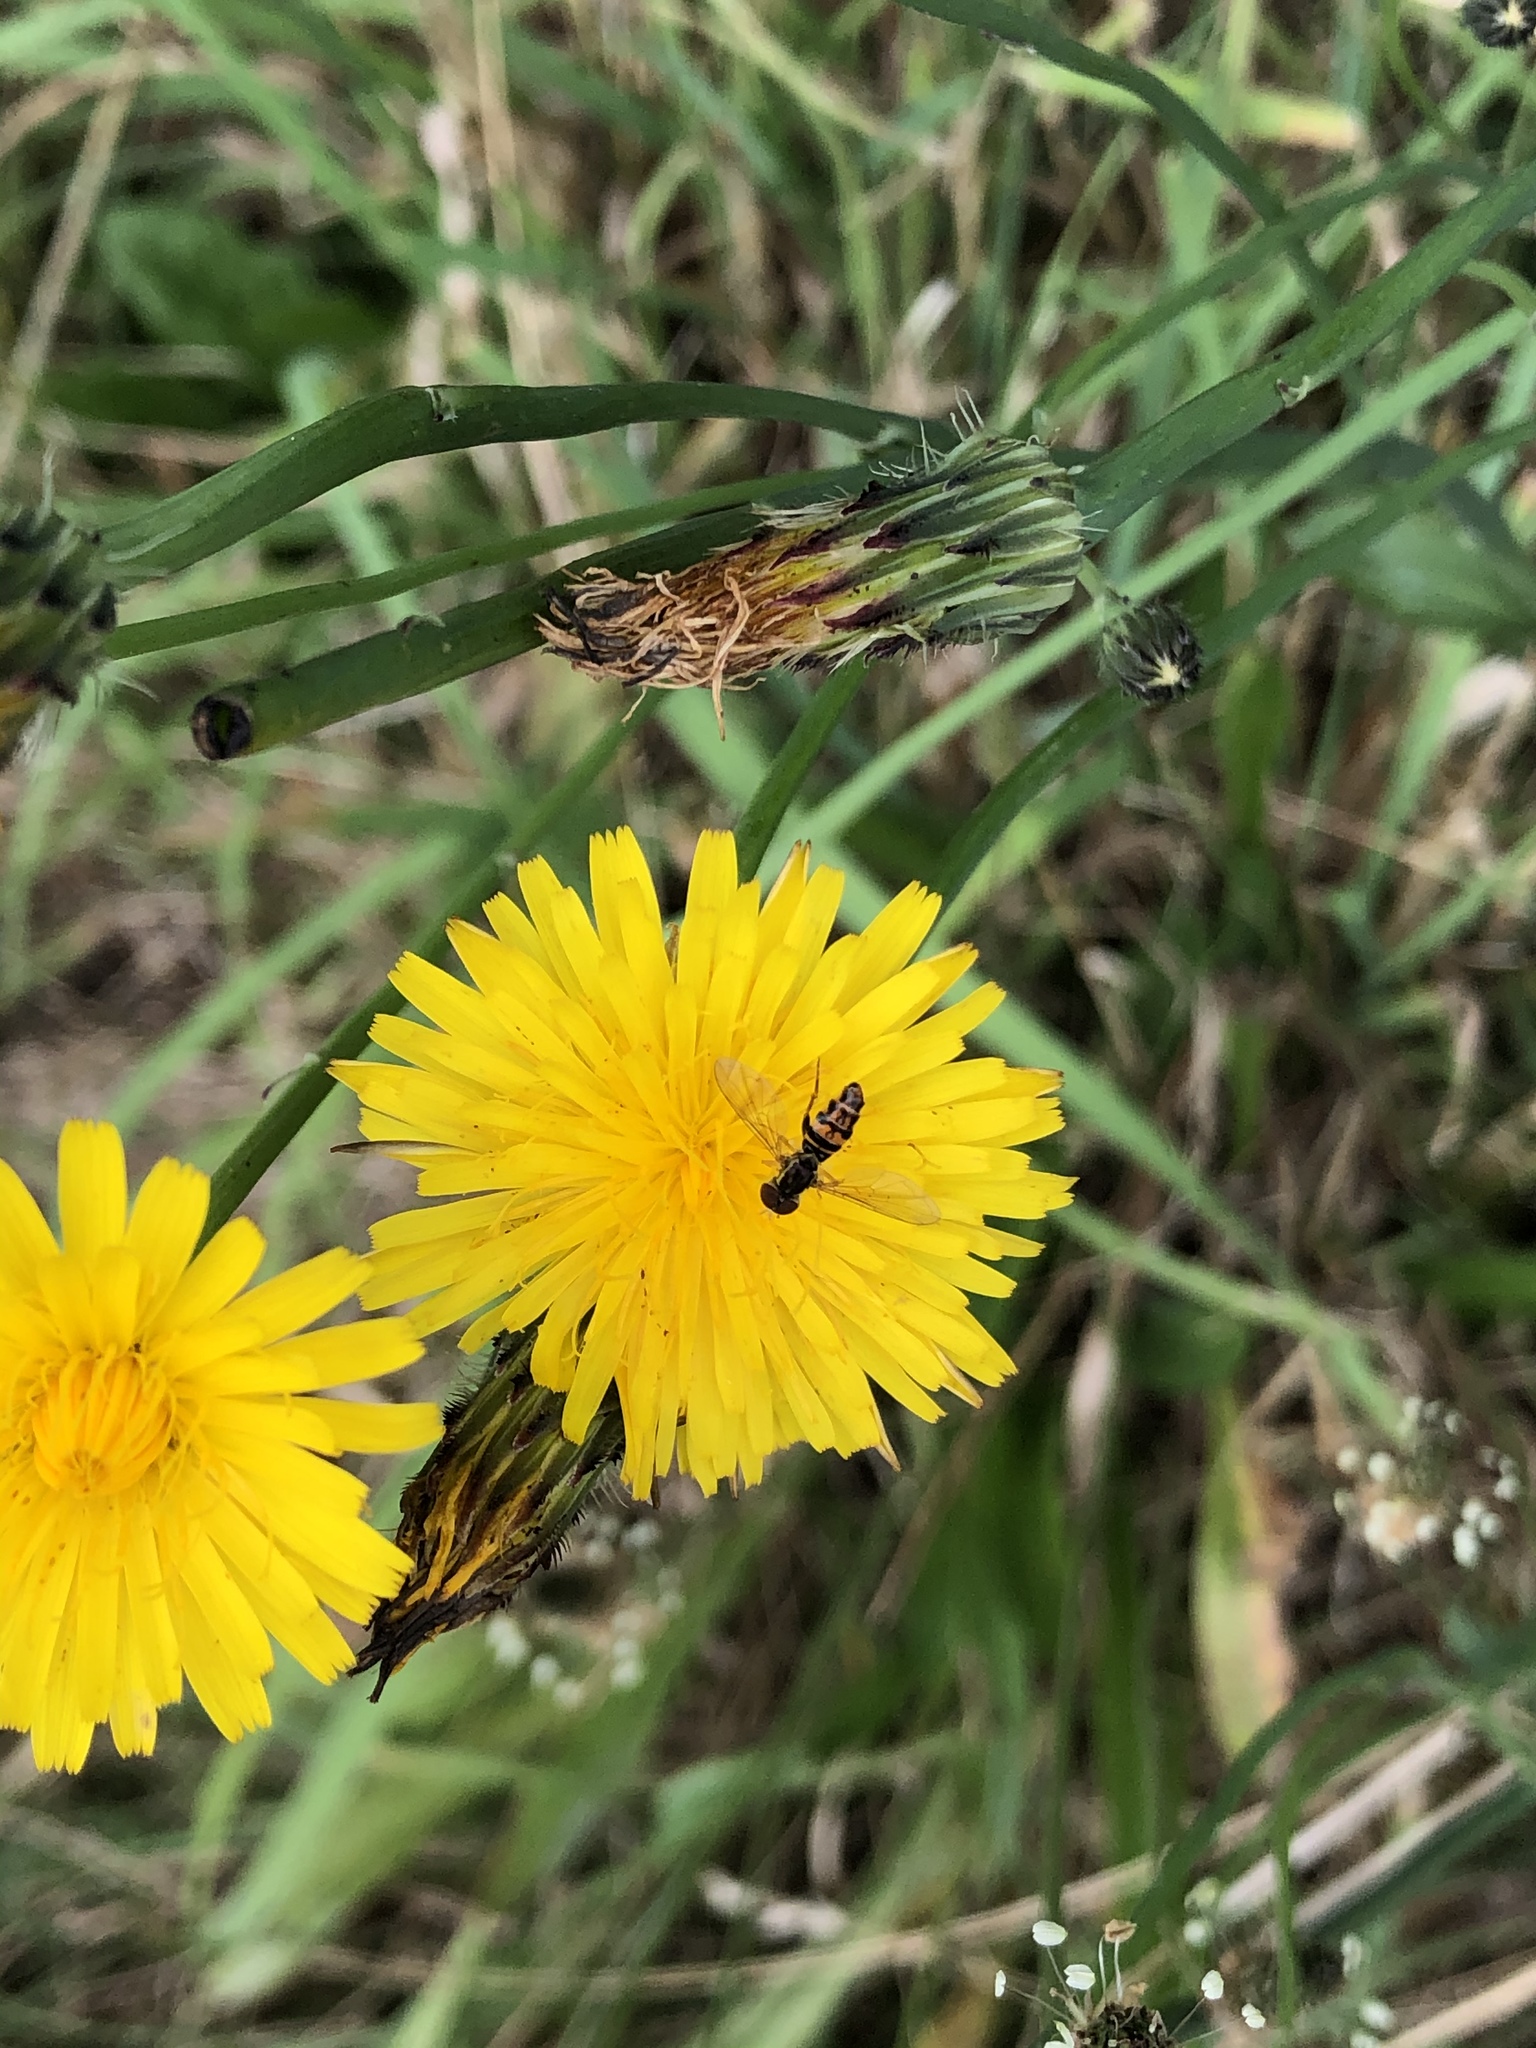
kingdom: Animalia
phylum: Arthropoda
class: Insecta
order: Diptera
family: Syrphidae
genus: Toxomerus
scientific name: Toxomerus occidentalis
